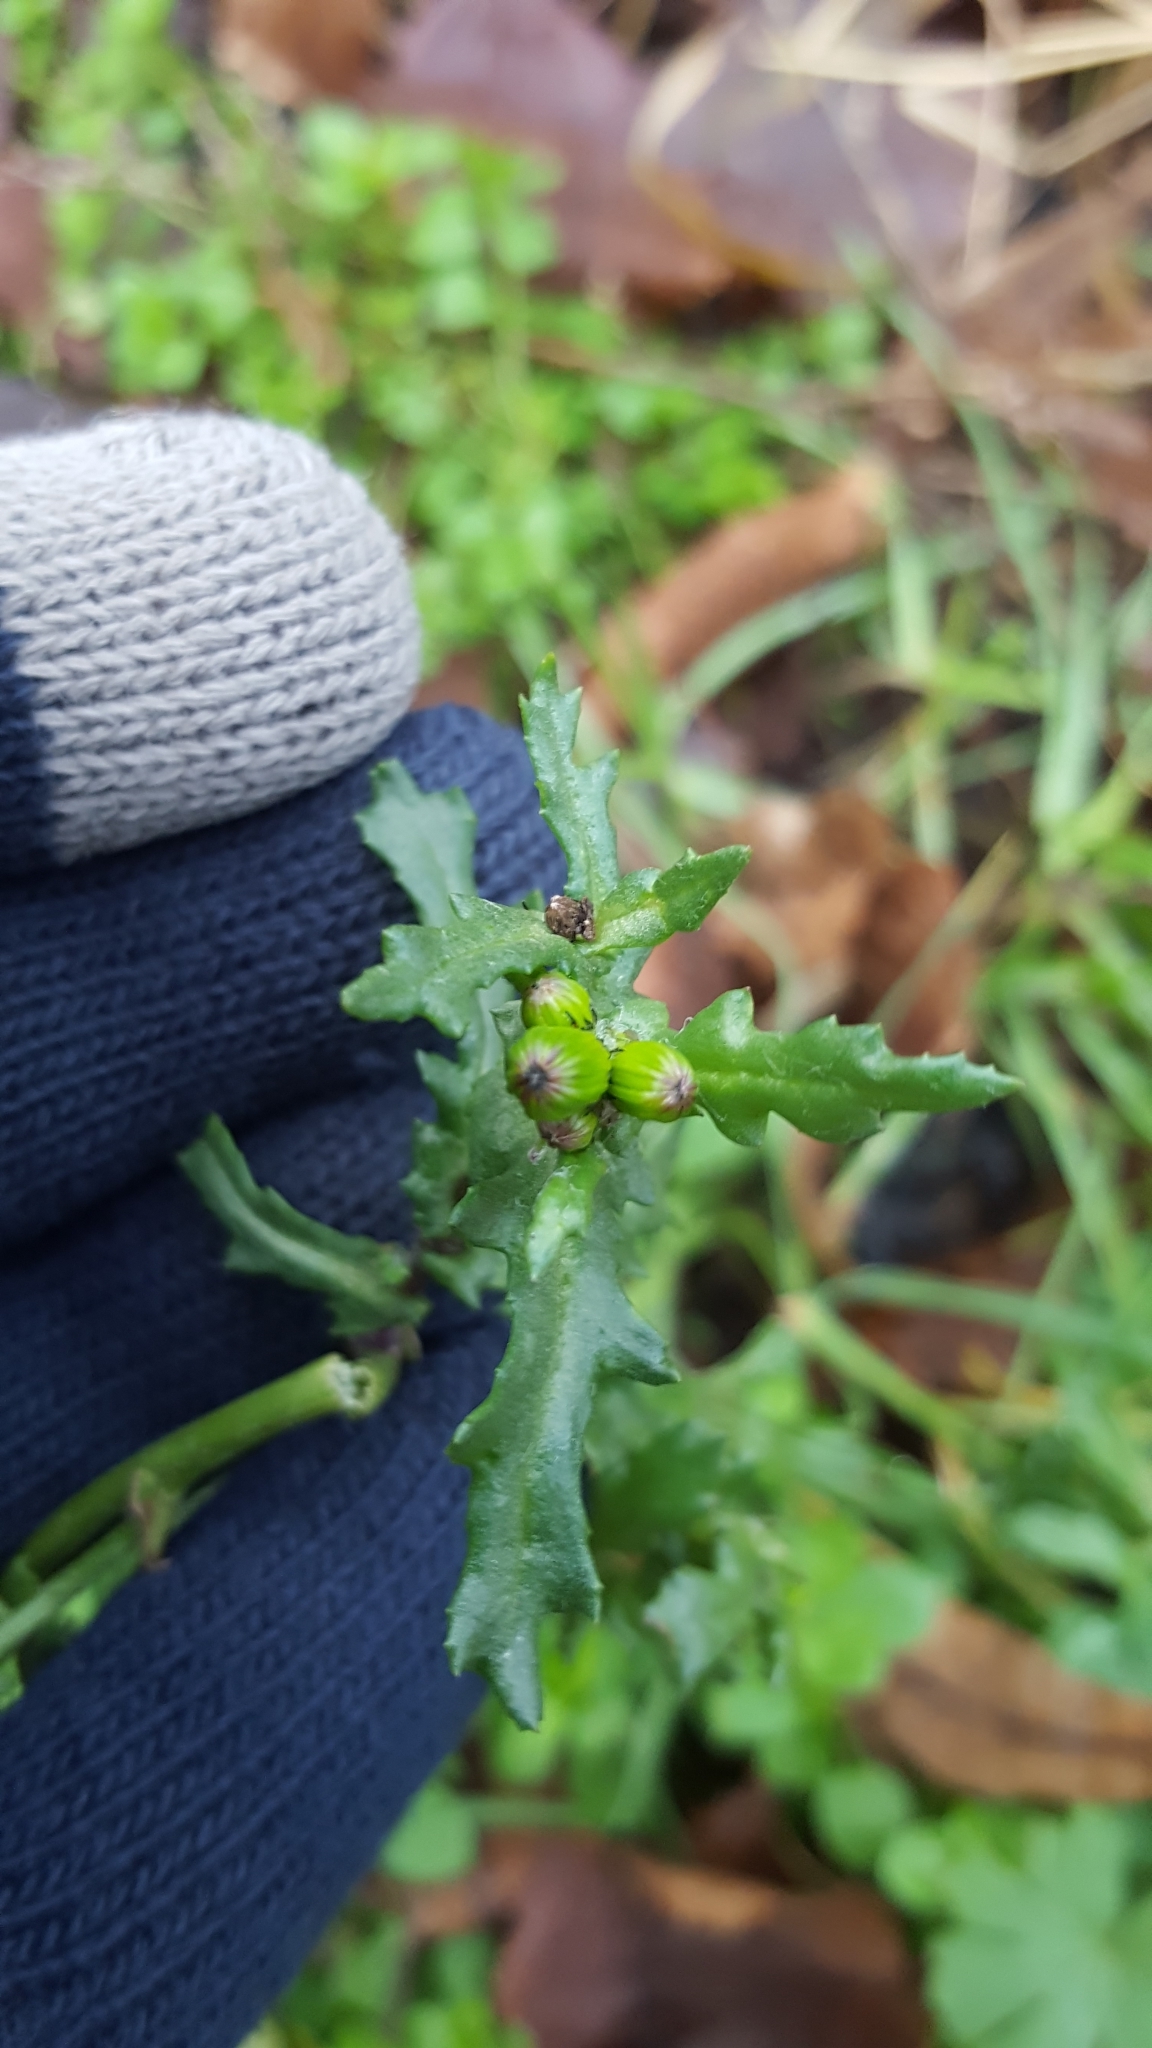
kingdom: Plantae
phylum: Tracheophyta
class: Magnoliopsida
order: Asterales
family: Asteraceae
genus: Senecio
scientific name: Senecio vulgaris
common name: Old-man-in-the-spring
